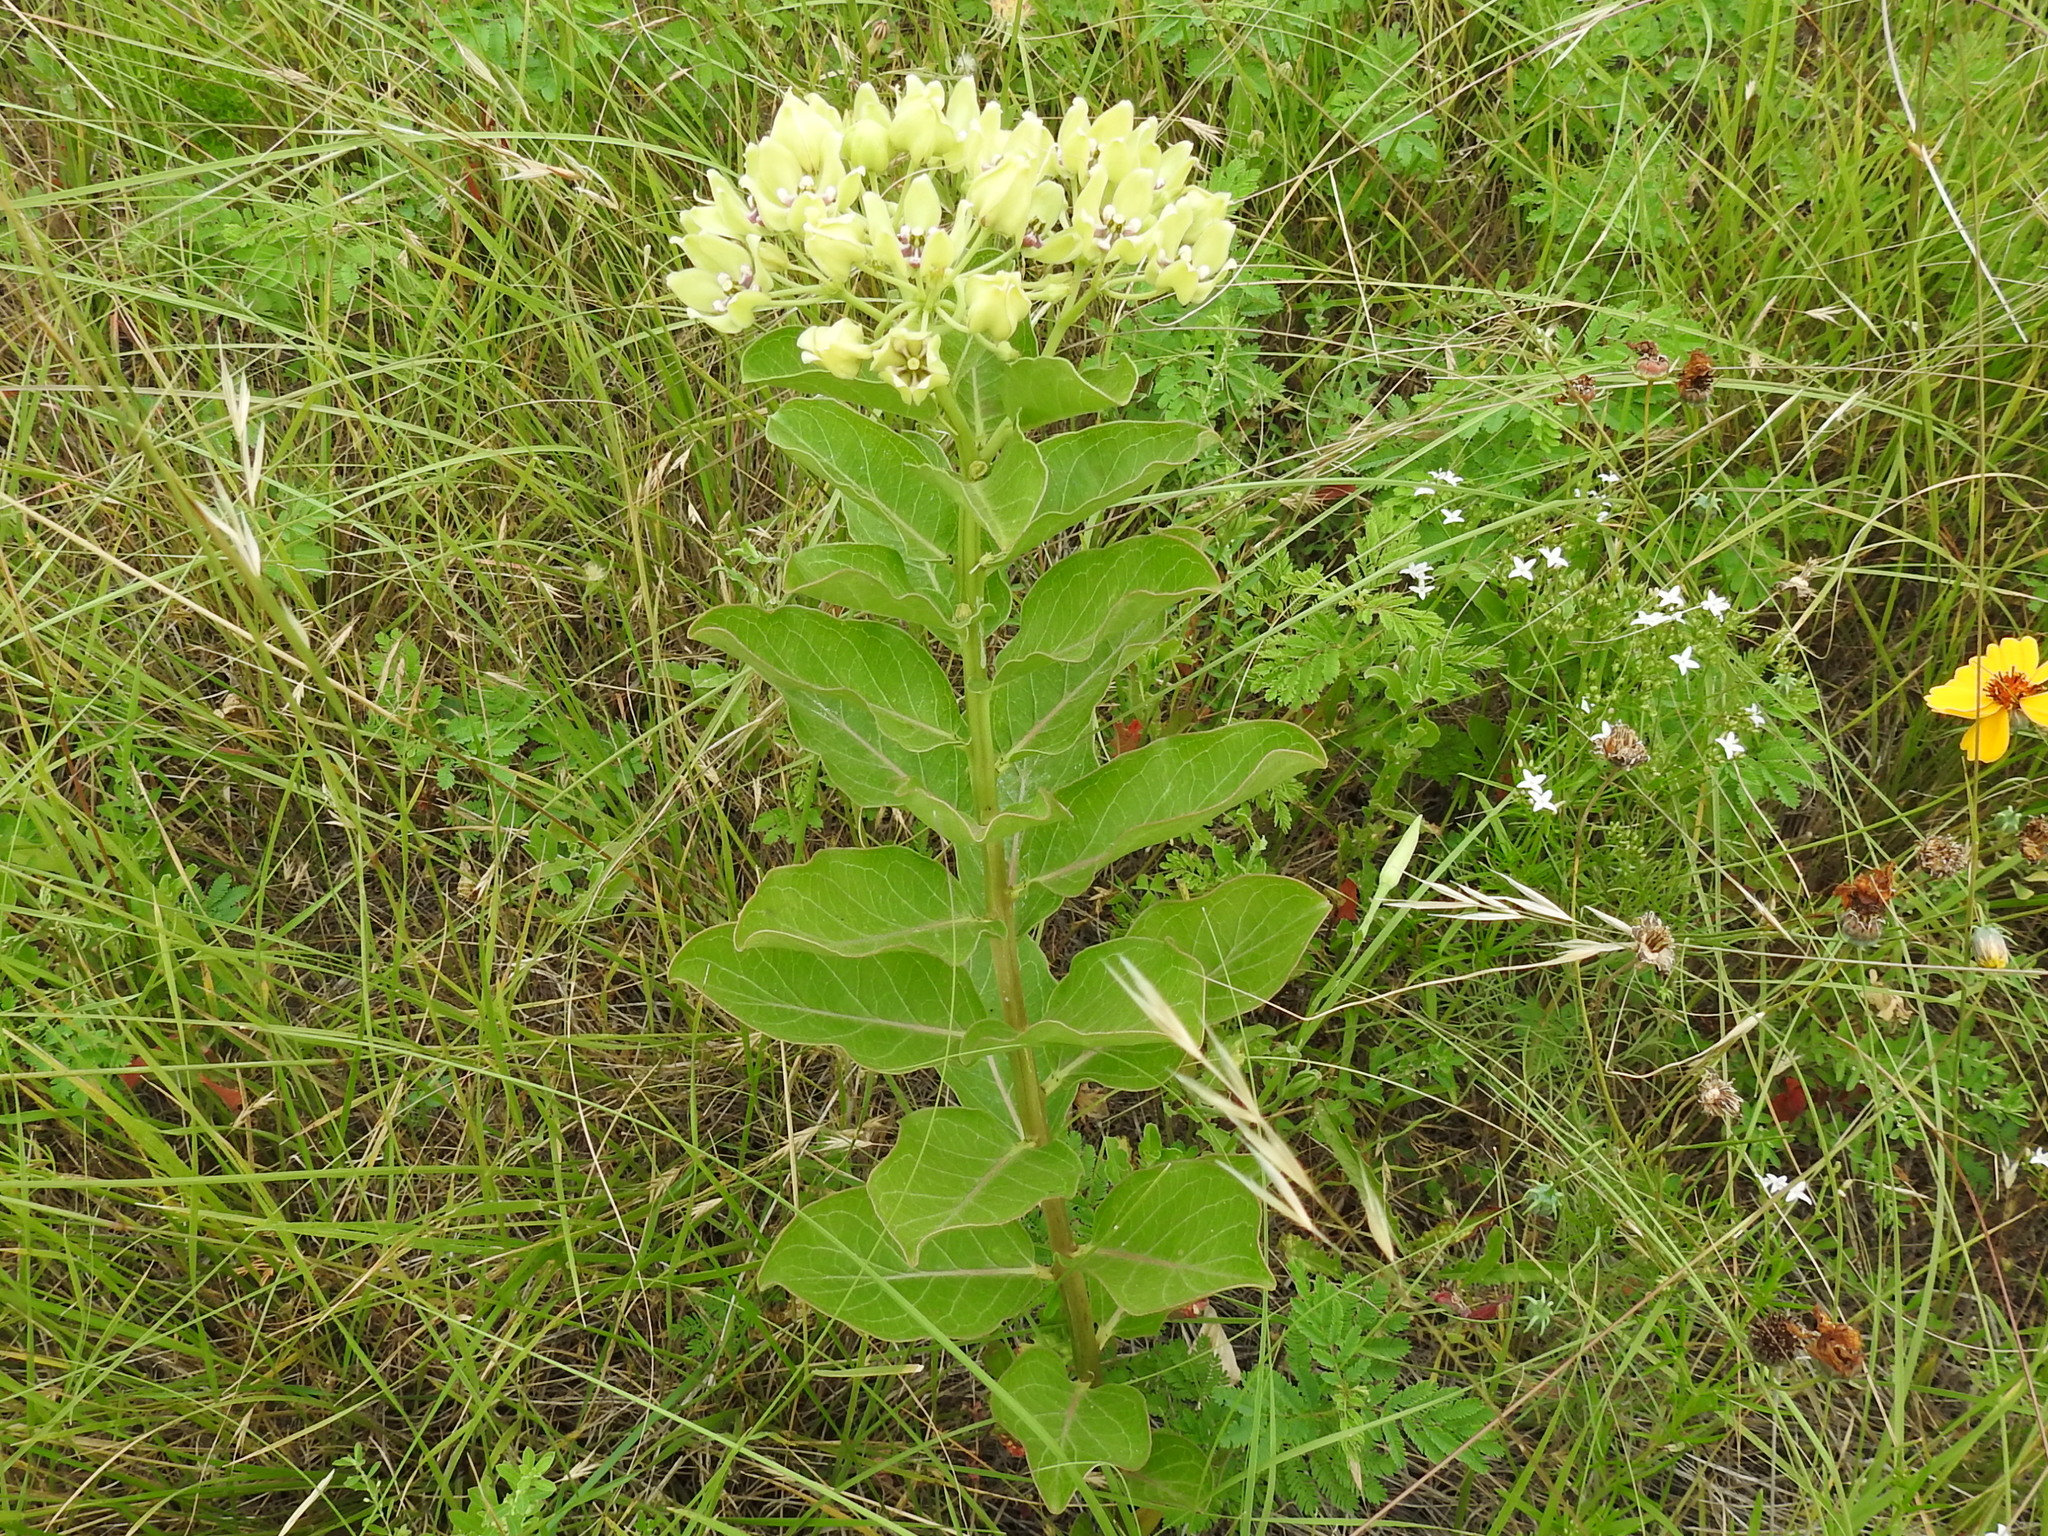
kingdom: Plantae
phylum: Tracheophyta
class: Magnoliopsida
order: Gentianales
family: Apocynaceae
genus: Asclepias
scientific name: Asclepias viridis
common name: Antelope-horns
